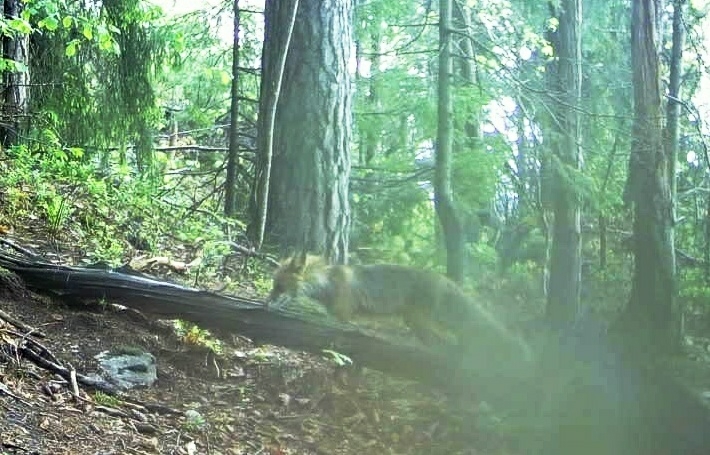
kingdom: Animalia
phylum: Chordata
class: Mammalia
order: Carnivora
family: Canidae
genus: Vulpes
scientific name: Vulpes vulpes
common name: Red fox
